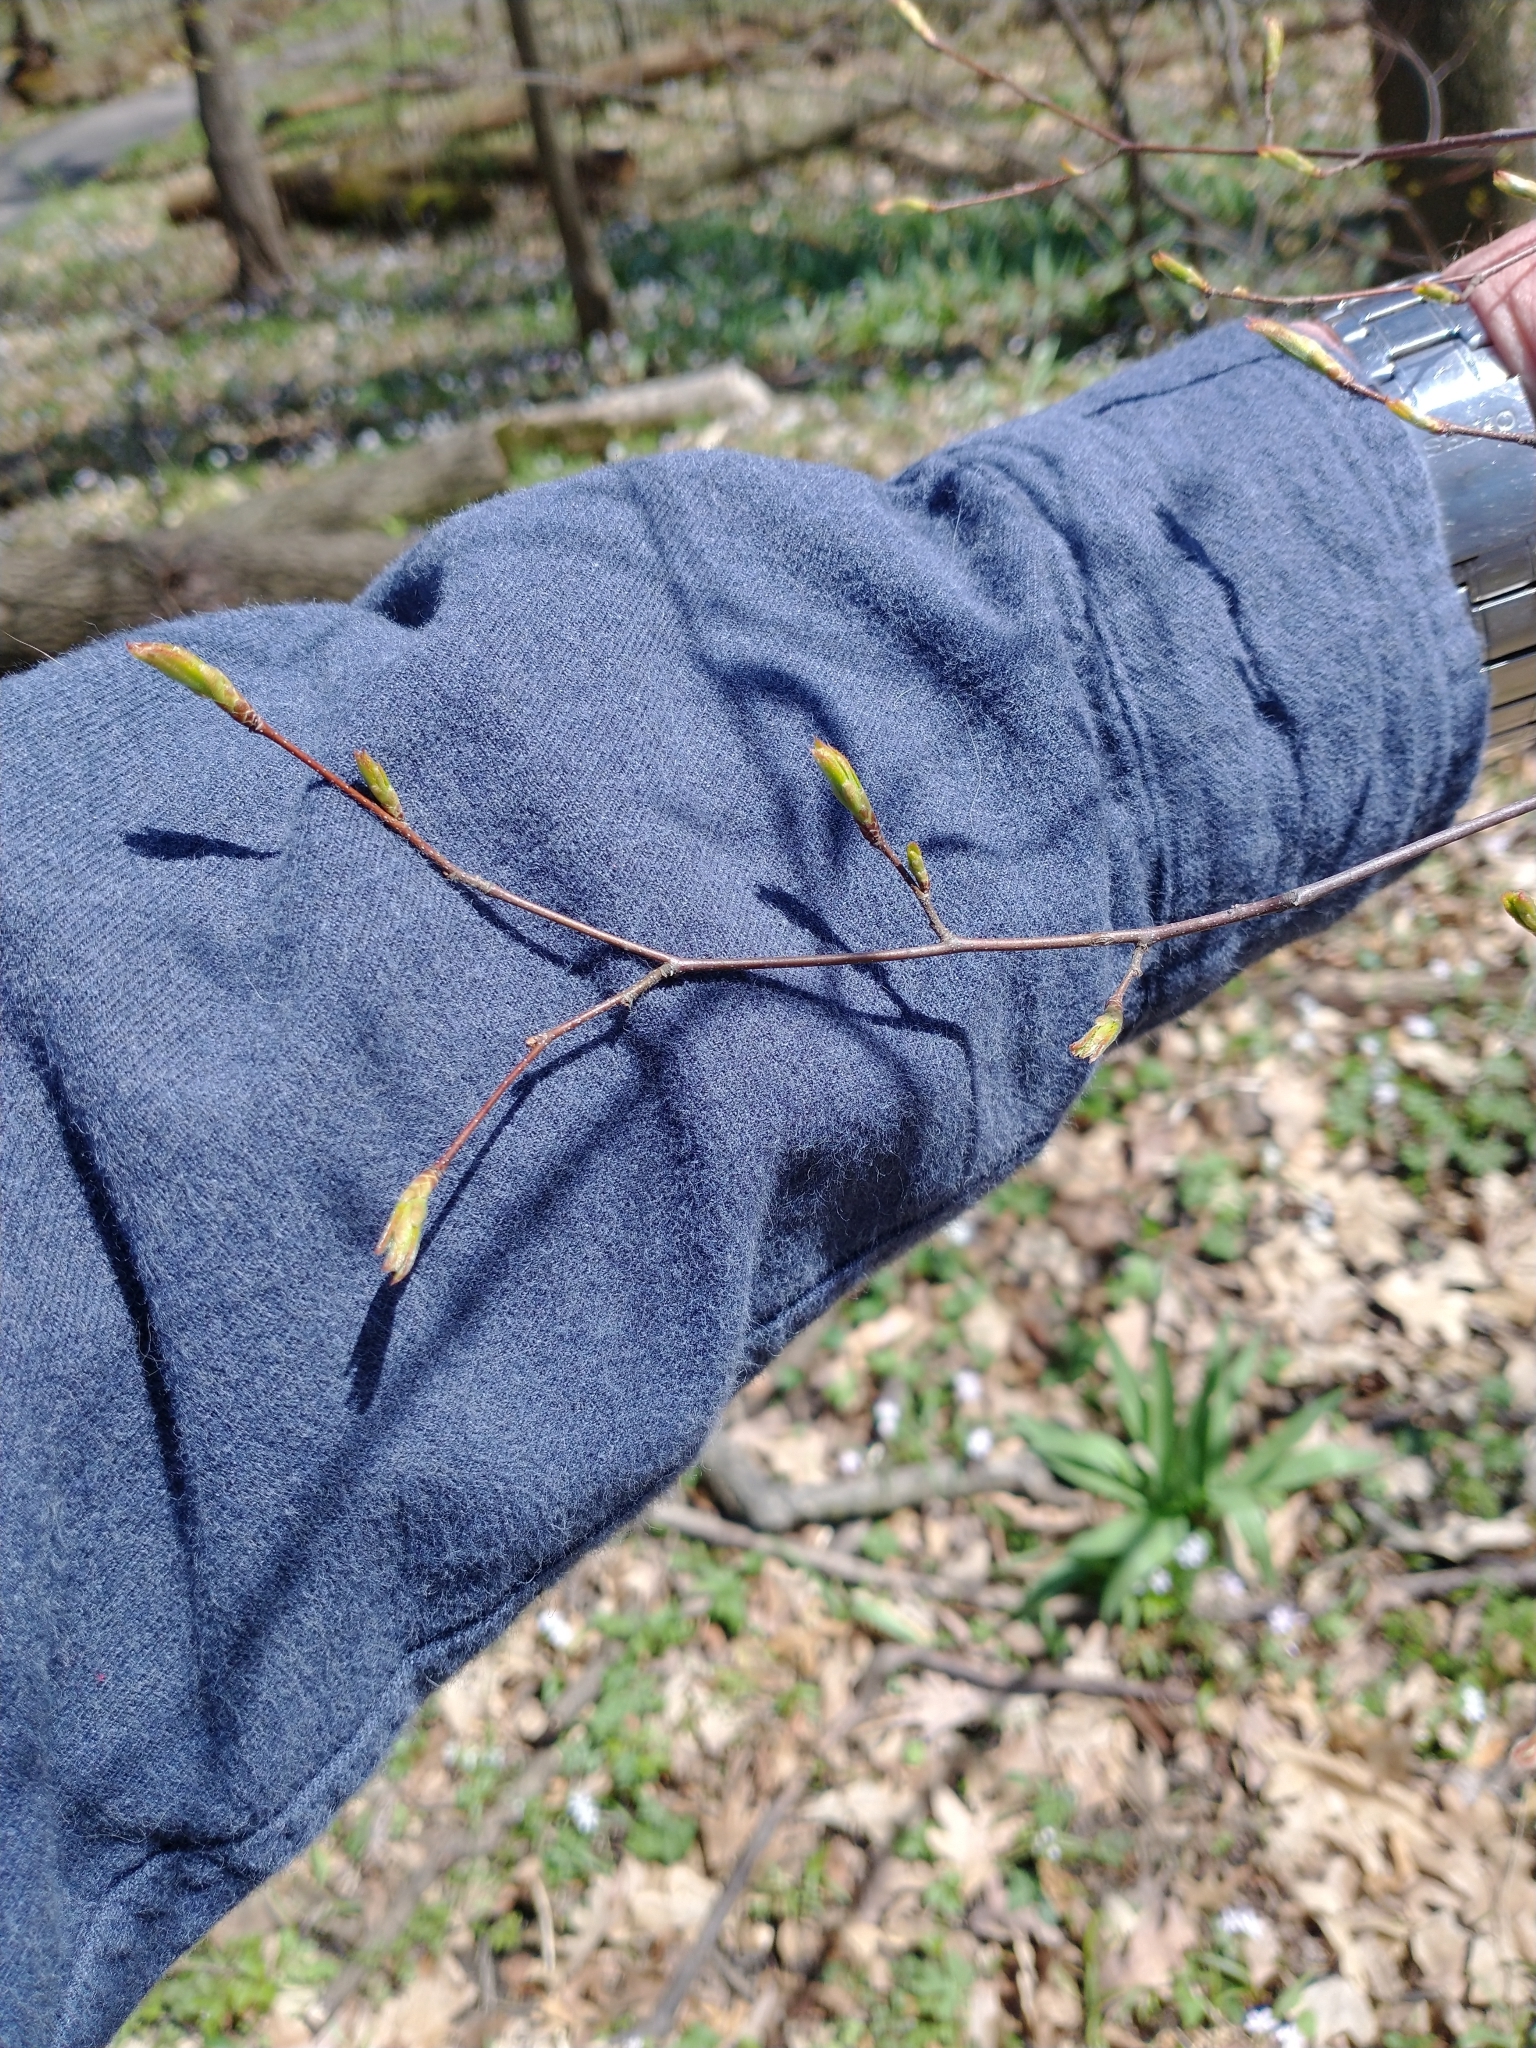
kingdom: Plantae
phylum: Tracheophyta
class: Magnoliopsida
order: Fagales
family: Betulaceae
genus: Carpinus
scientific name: Carpinus caroliniana
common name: American hornbeam
